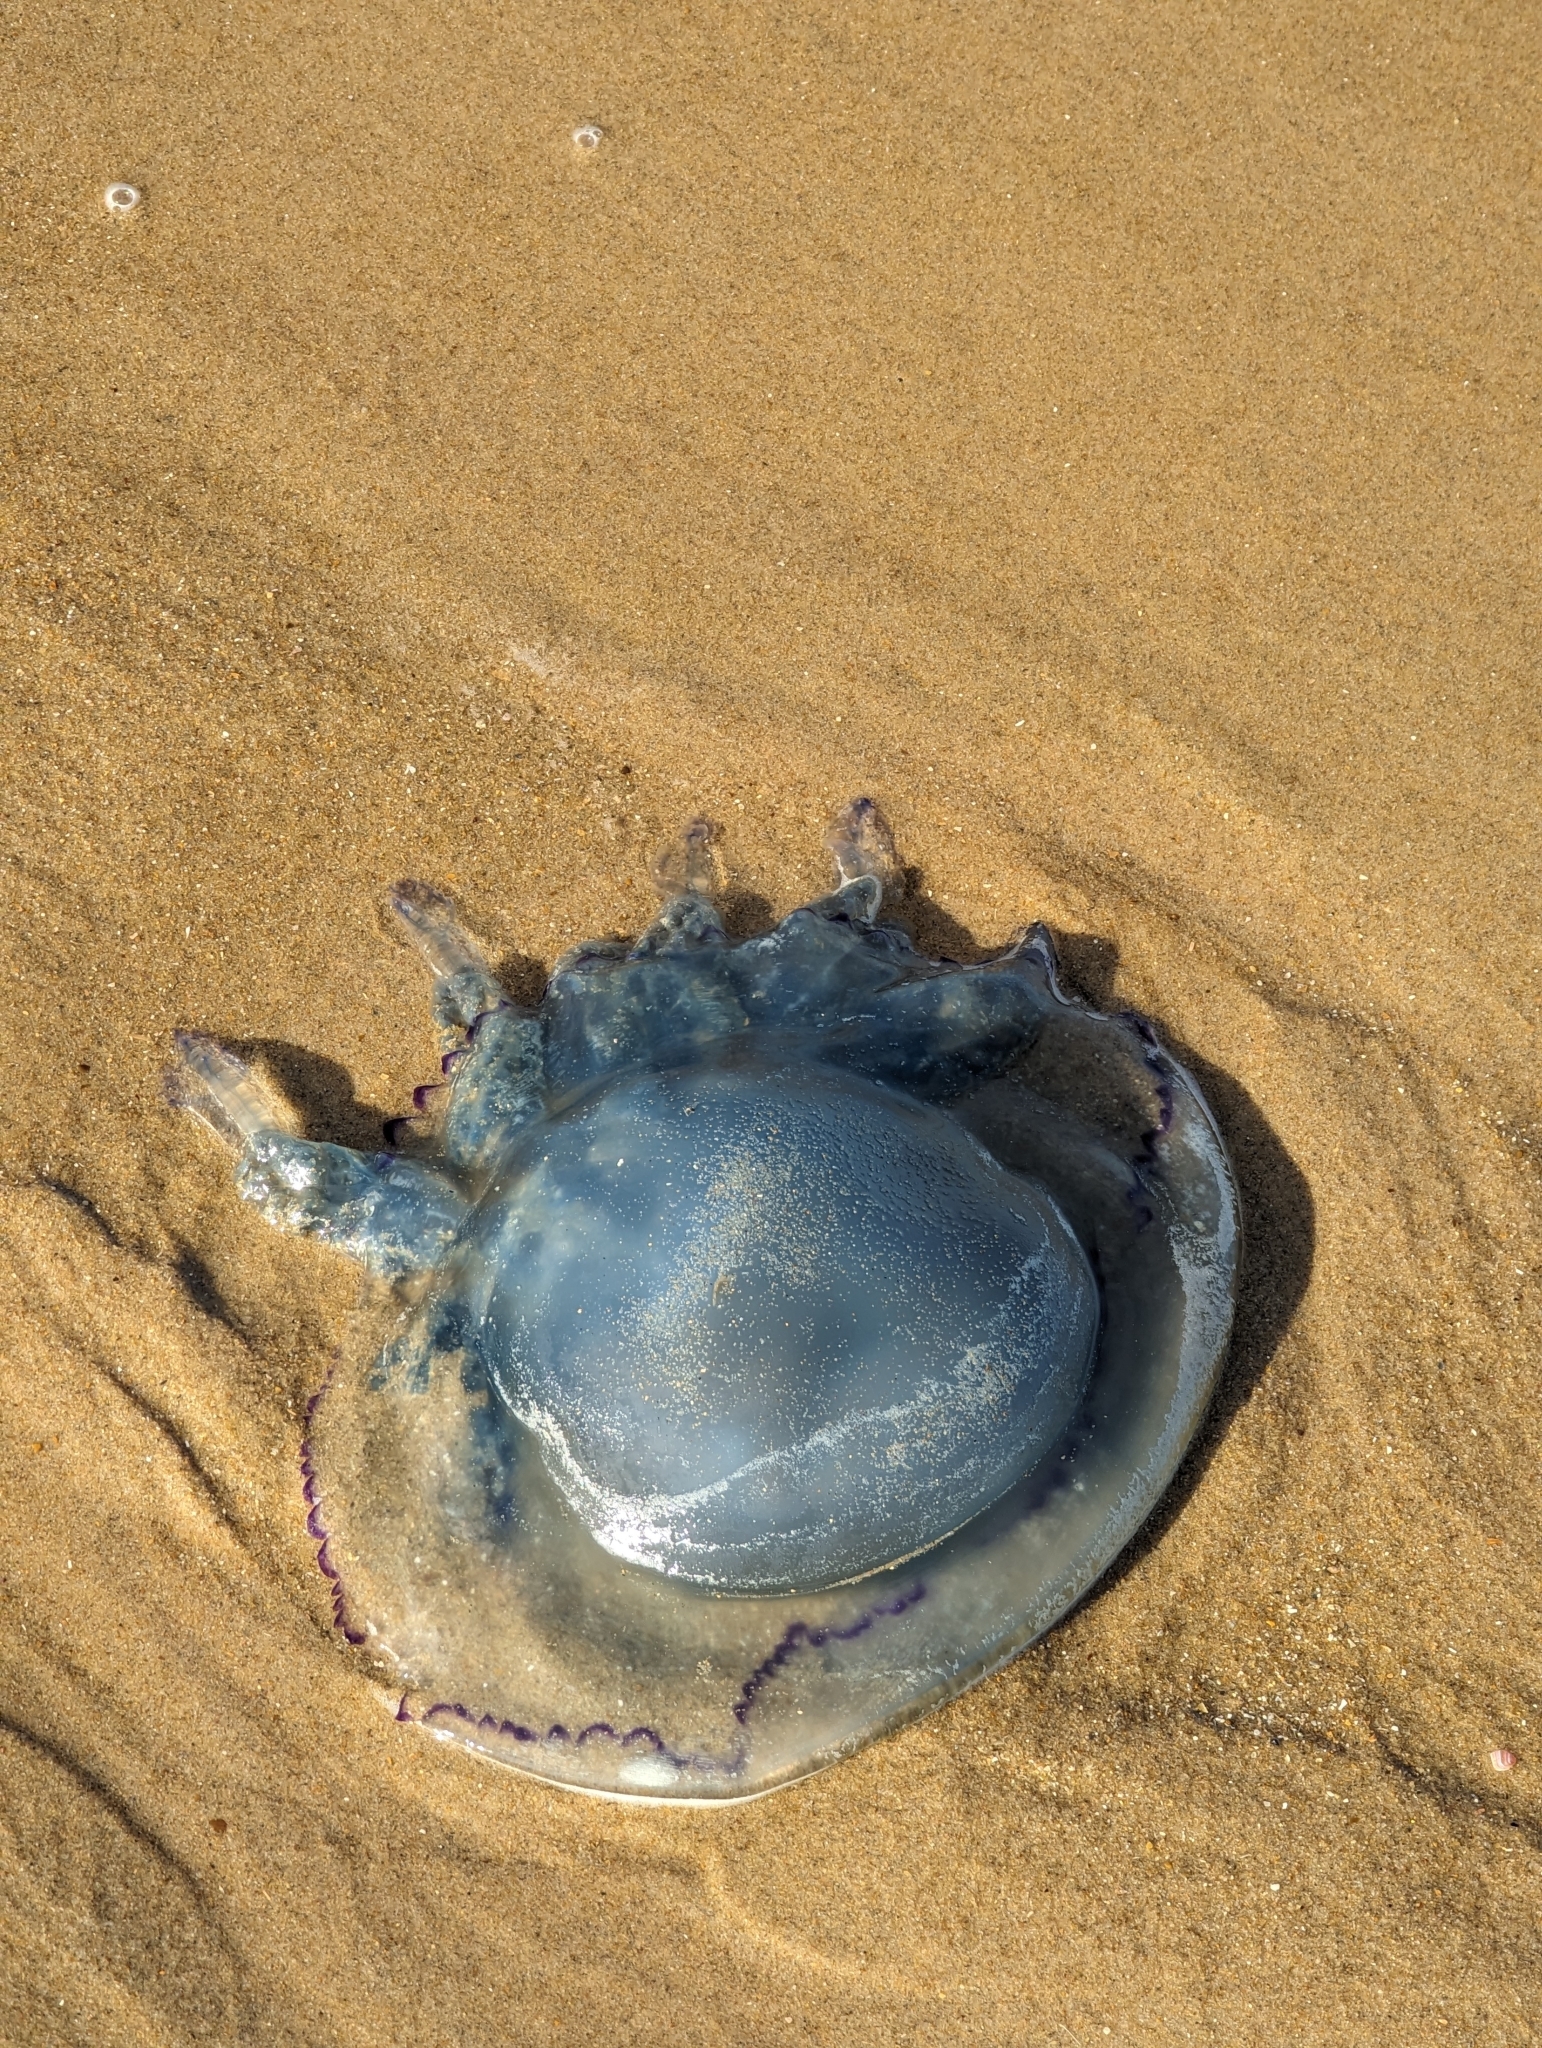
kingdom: Animalia
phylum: Cnidaria
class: Scyphozoa
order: Rhizostomeae
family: Rhizostomatidae
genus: Rhizostoma
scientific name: Rhizostoma octopus
